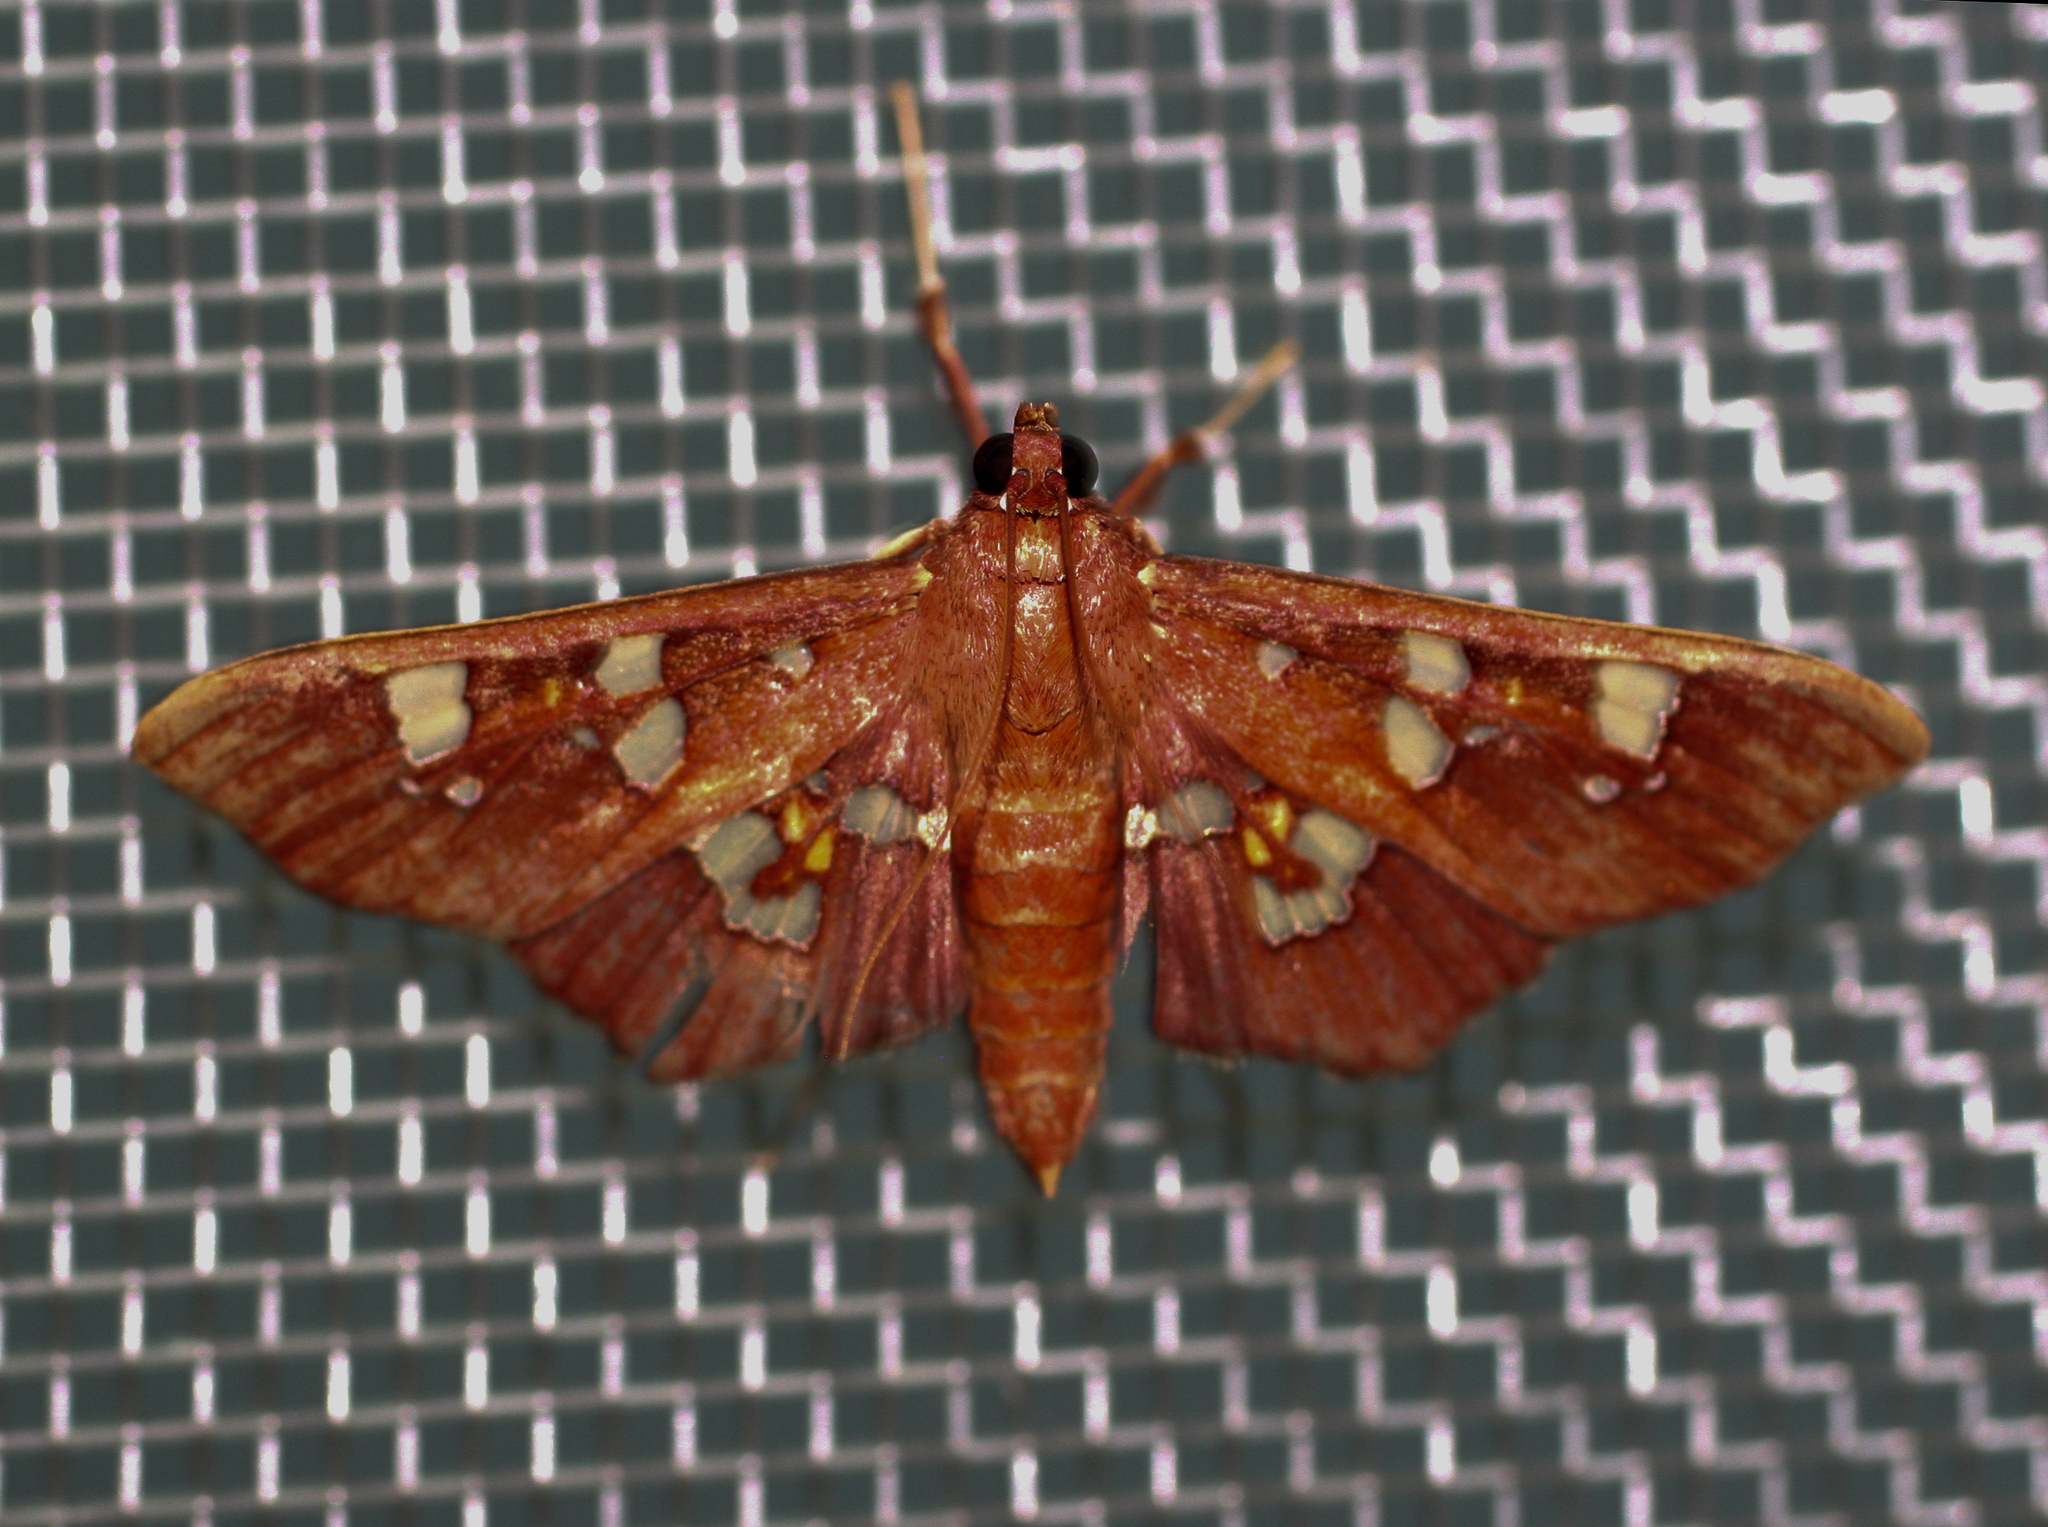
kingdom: Animalia
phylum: Arthropoda
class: Insecta
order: Lepidoptera
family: Crambidae
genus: Phostria
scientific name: Phostria temira
